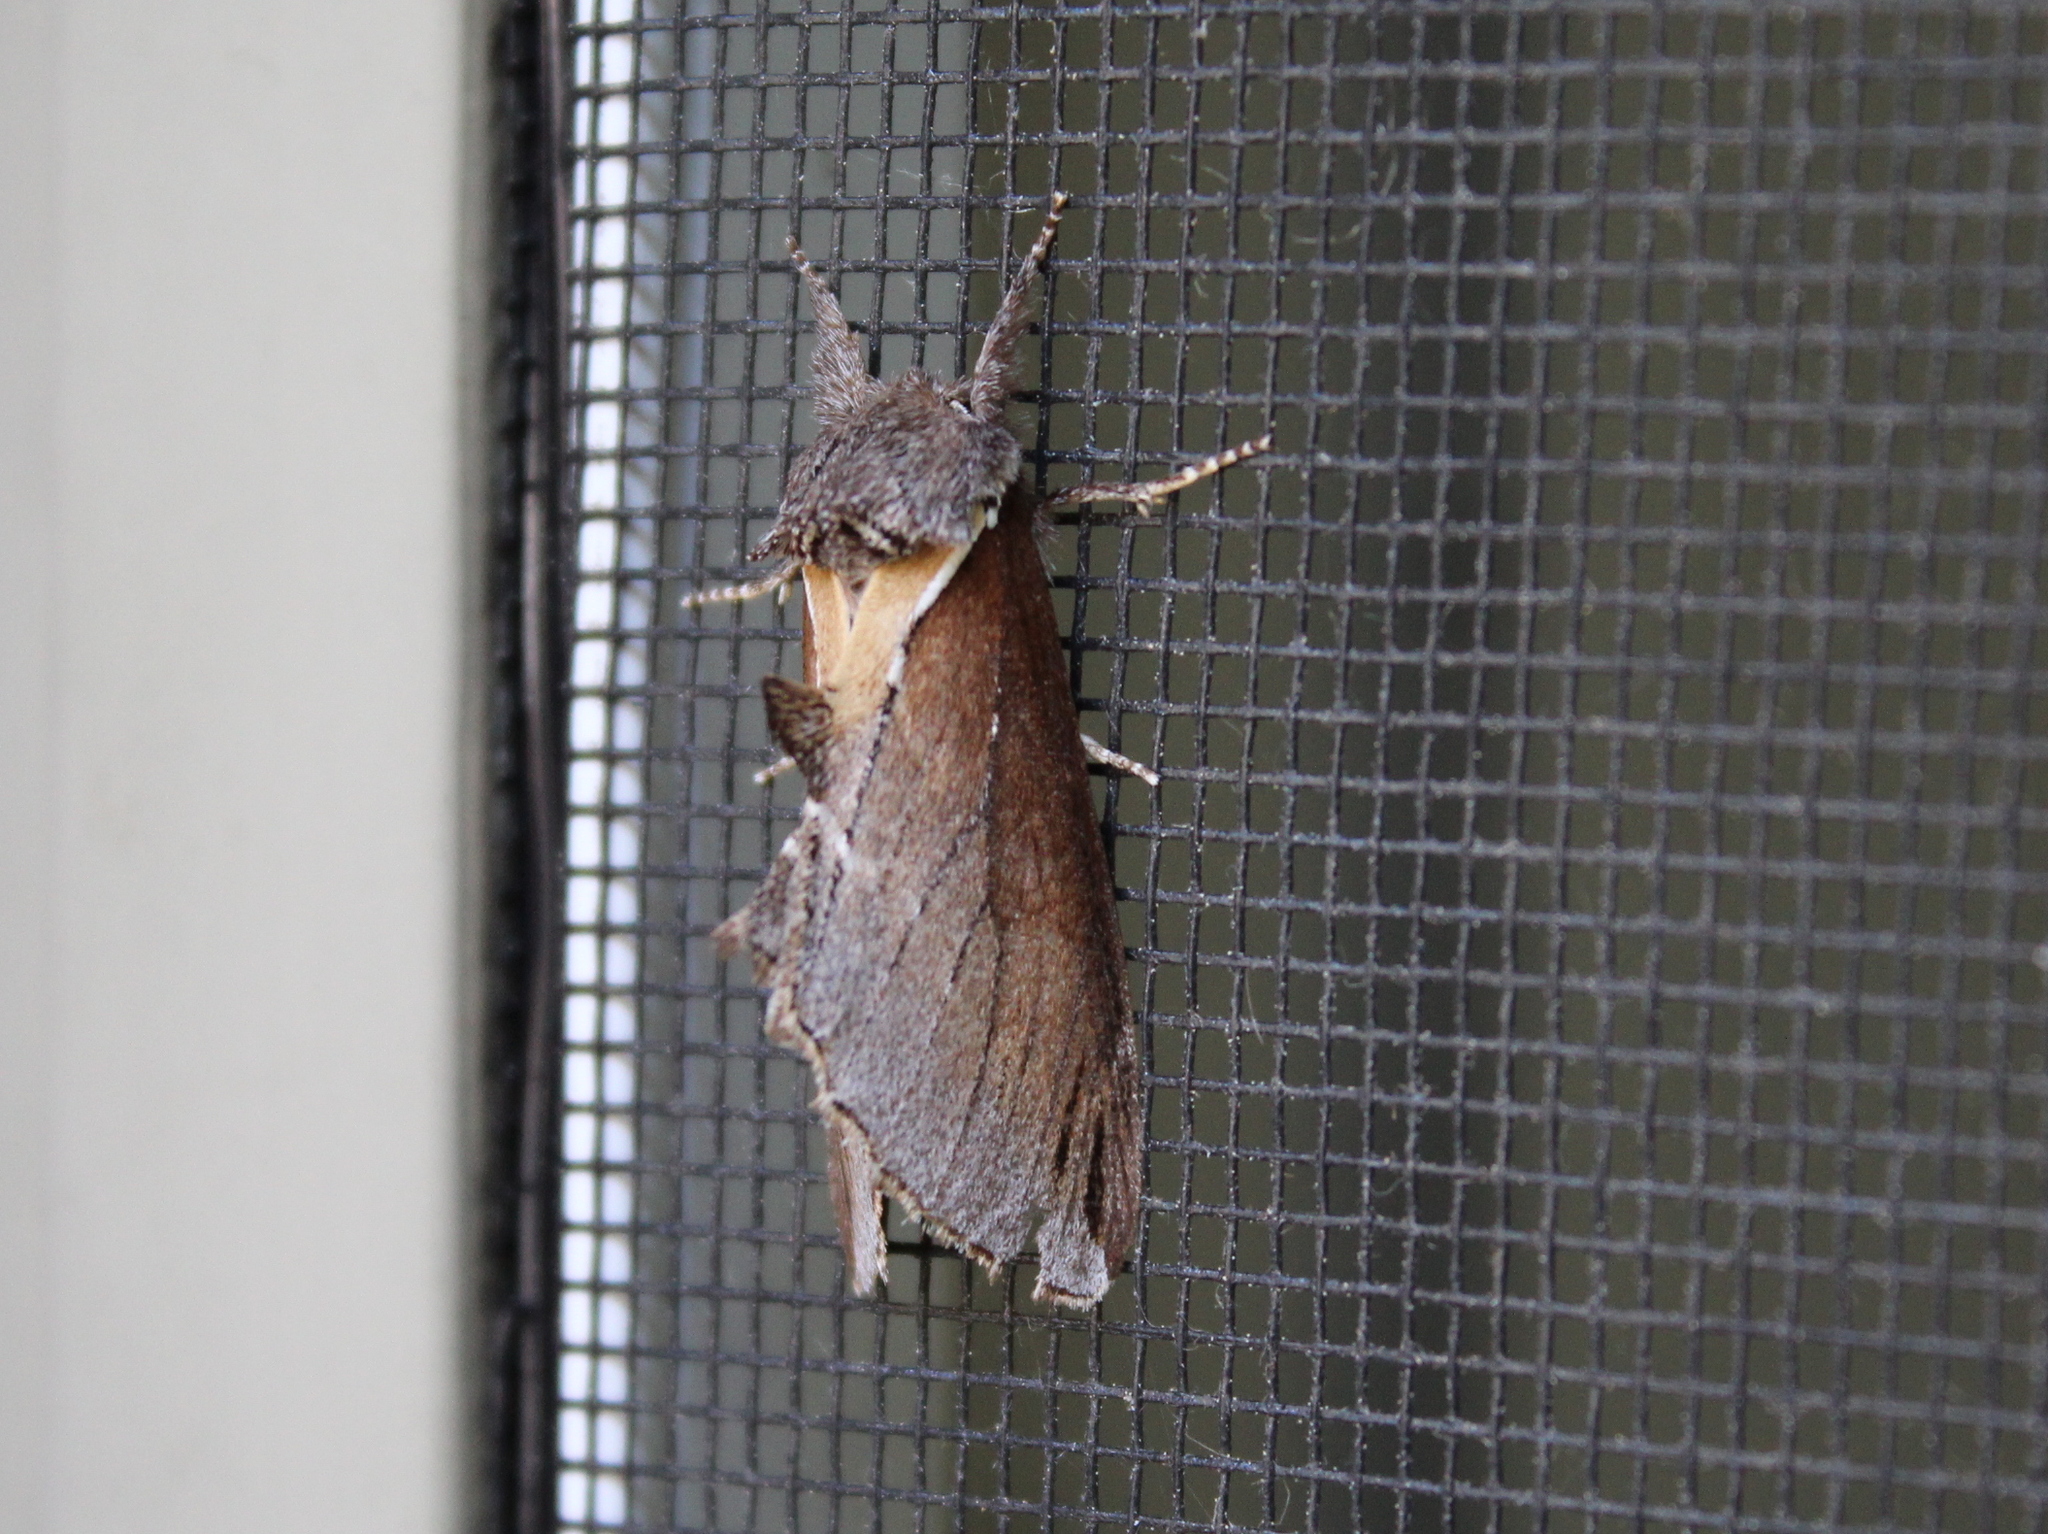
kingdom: Animalia
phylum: Arthropoda
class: Insecta
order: Lepidoptera
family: Notodontidae
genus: Pheosidea
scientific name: Pheosidea elegans
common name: Elegant prominent
